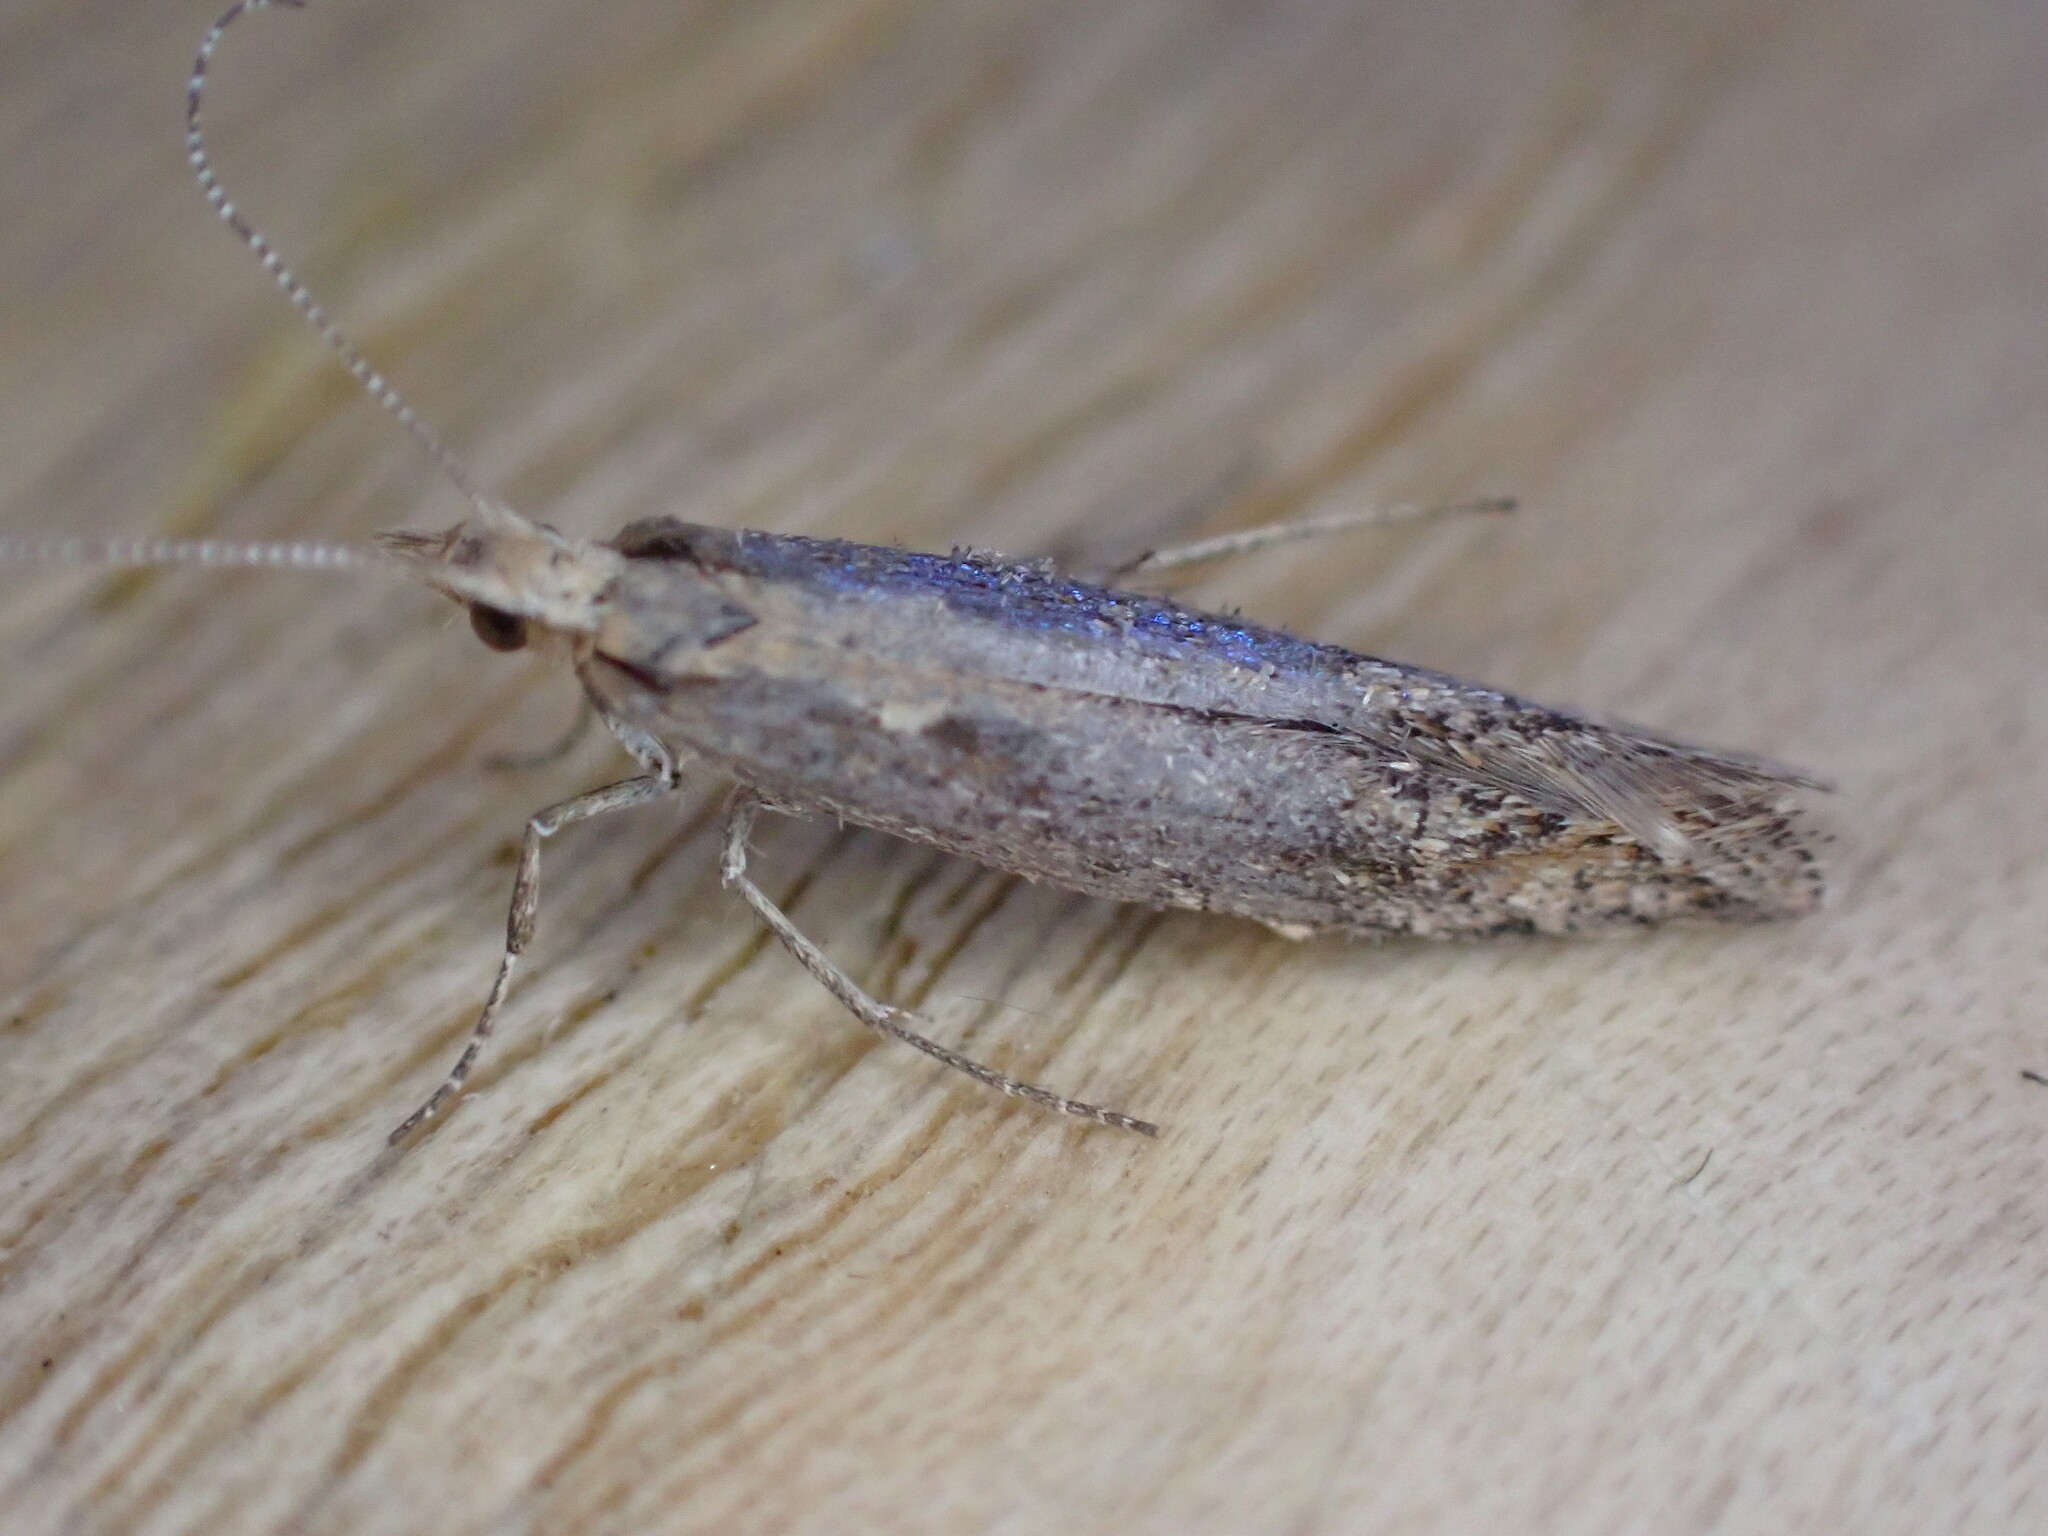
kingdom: Animalia
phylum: Arthropoda
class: Insecta
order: Lepidoptera
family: Plutellidae
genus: Plutella
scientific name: Plutella xylostella
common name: Diamond-back moth
